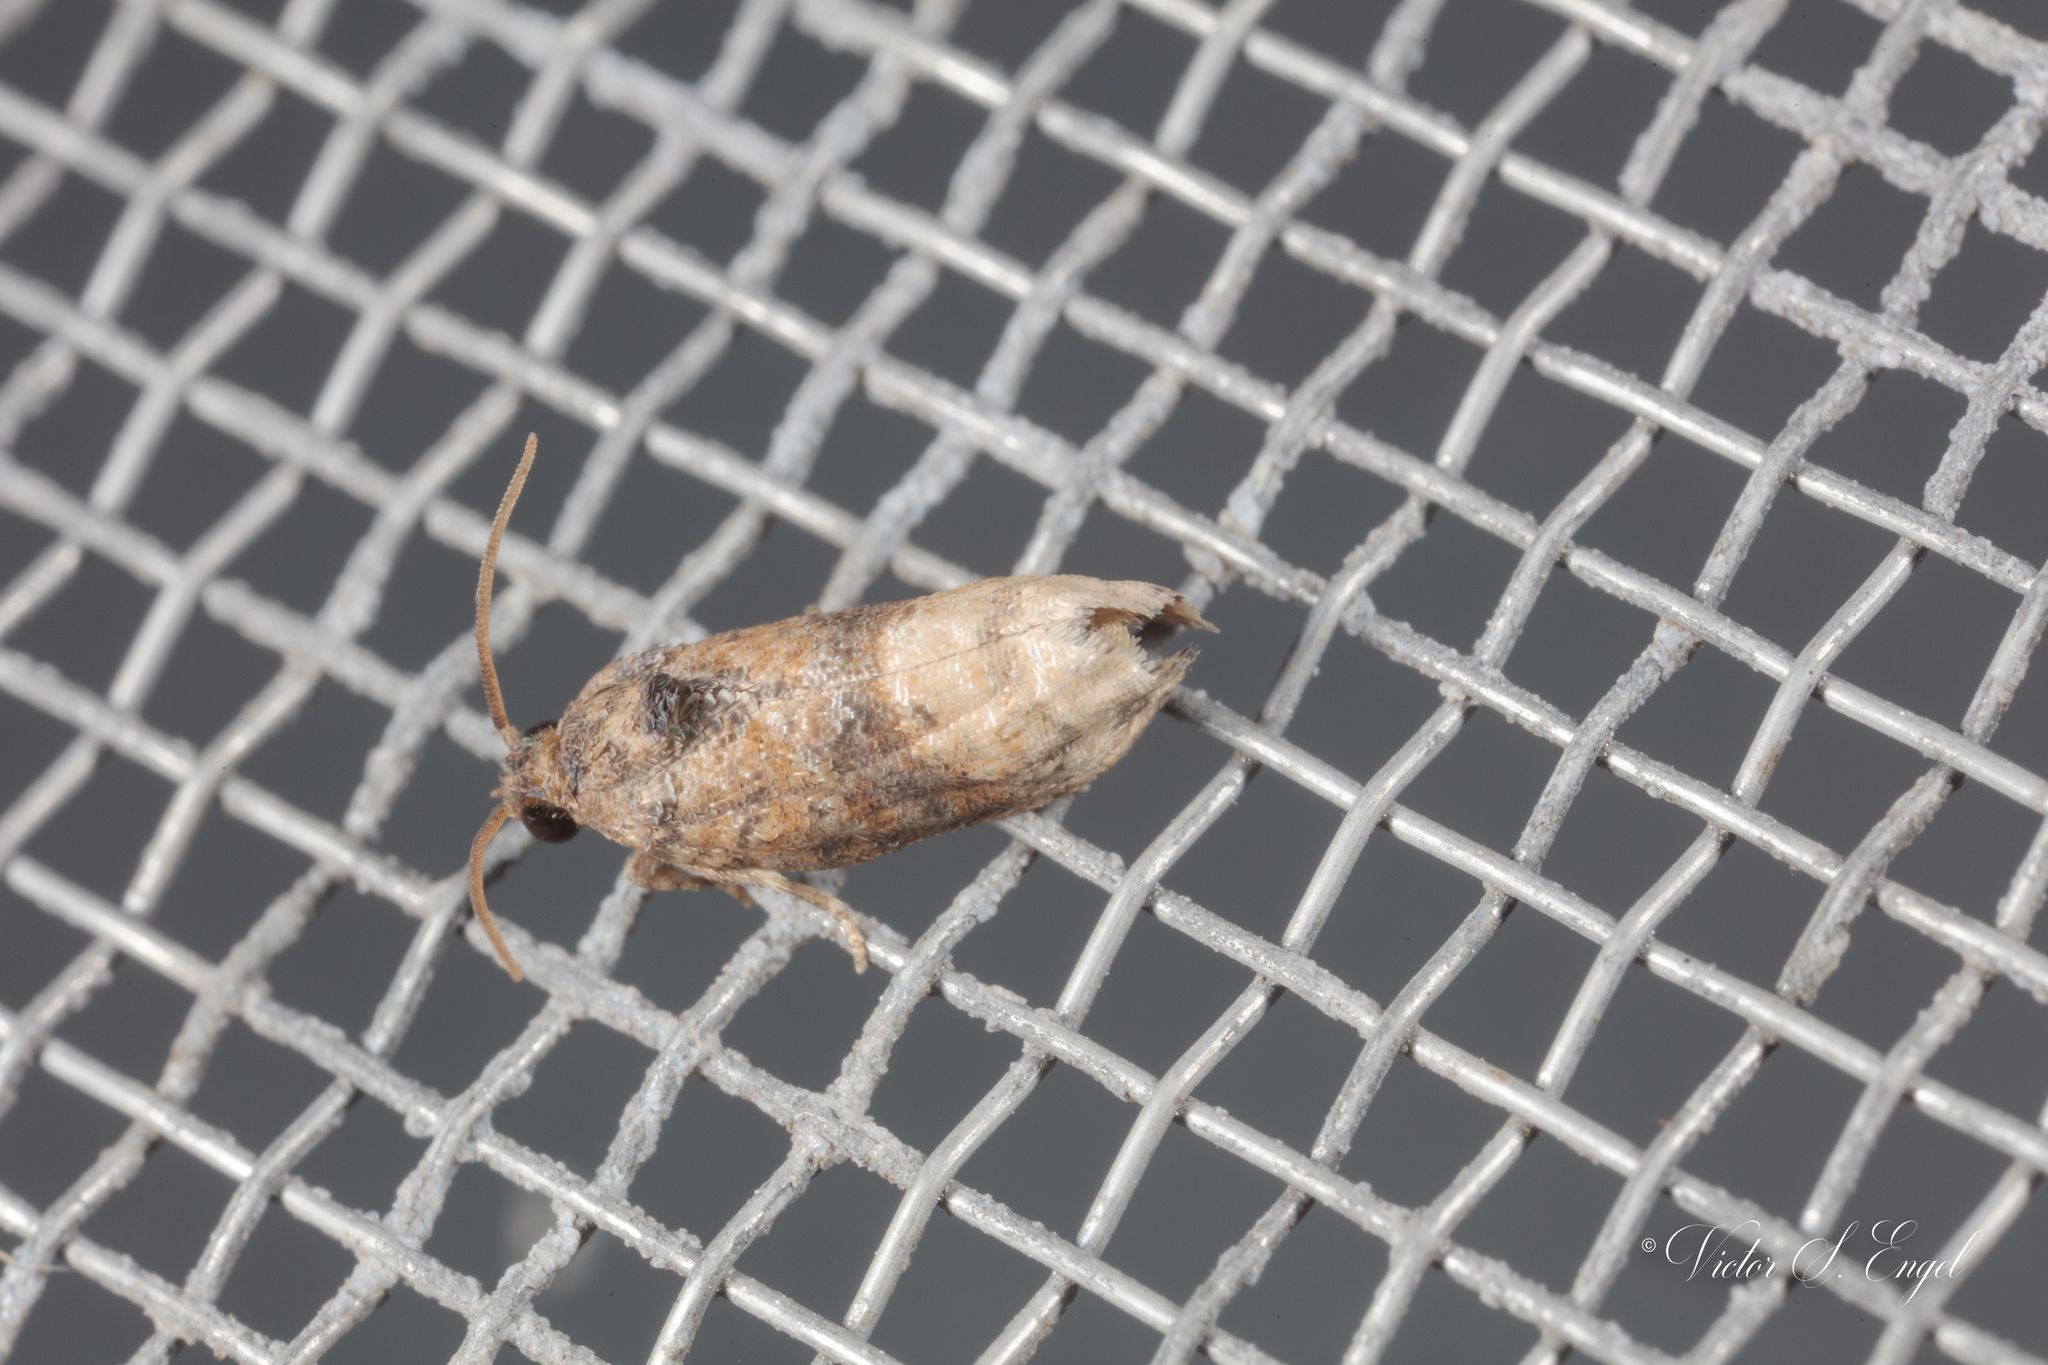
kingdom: Animalia
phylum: Arthropoda
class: Insecta
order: Lepidoptera
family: Tortricidae
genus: Ecdytolopha
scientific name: Ecdytolopha mana
